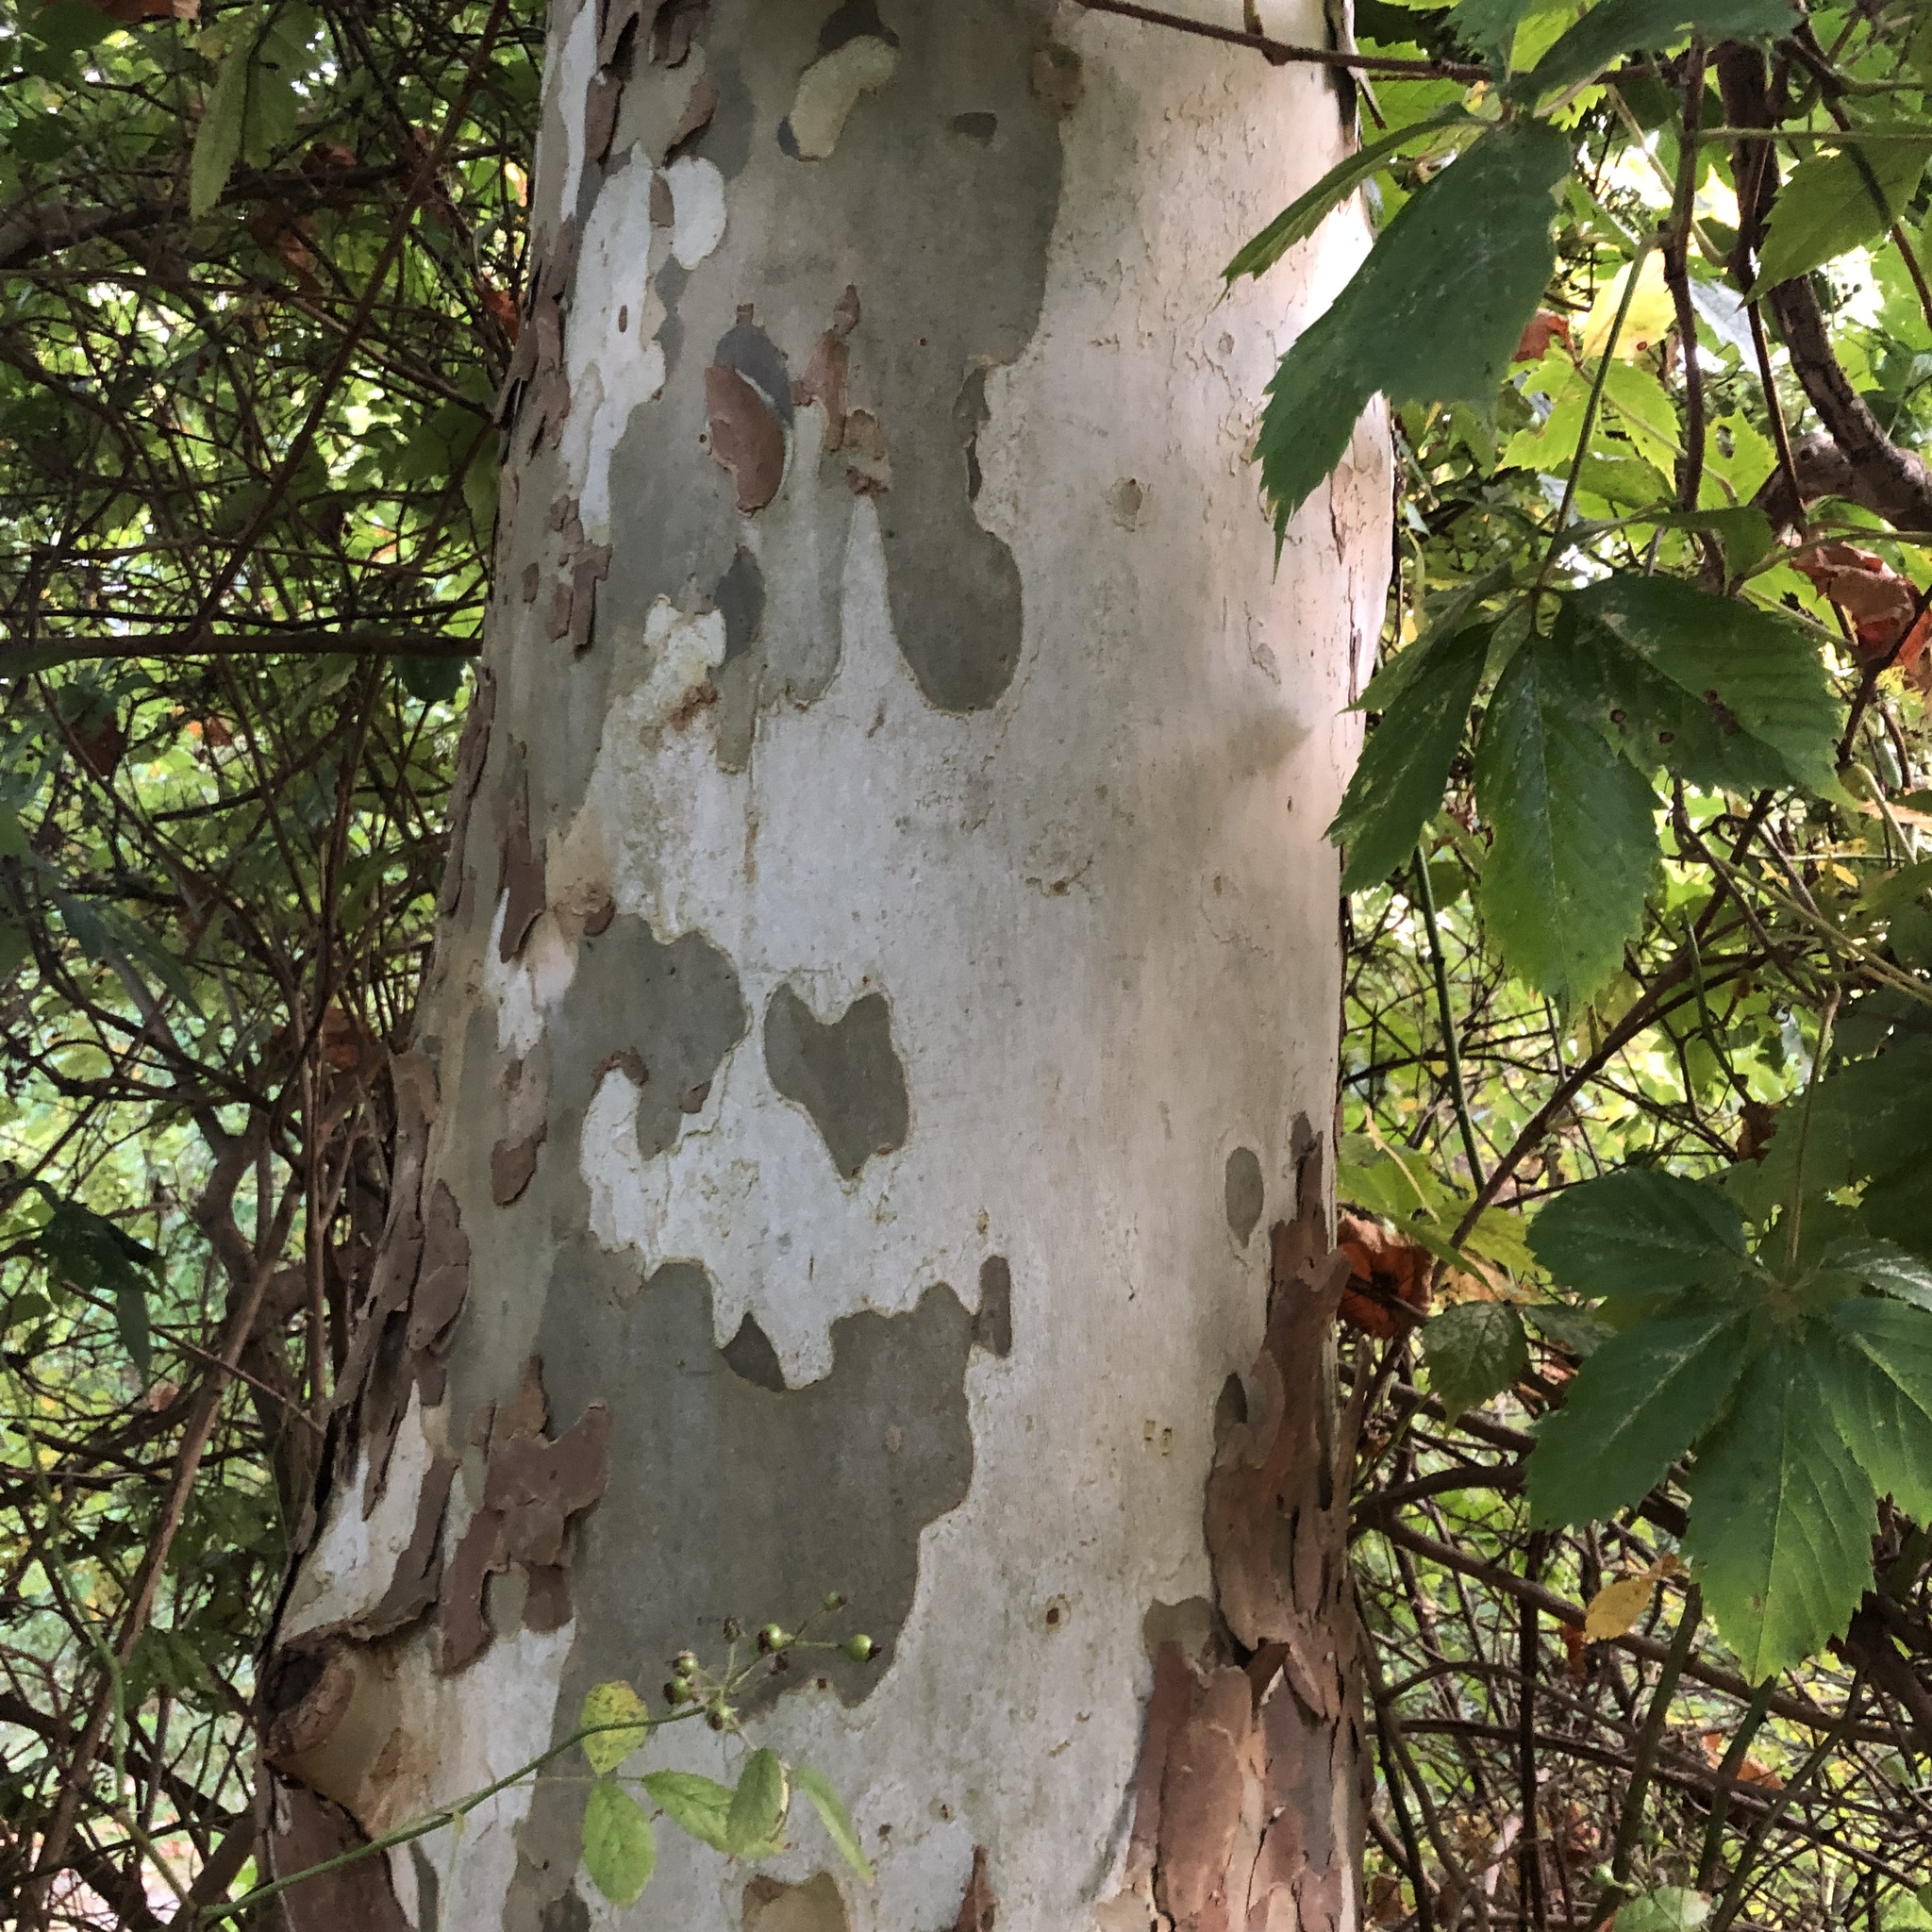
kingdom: Plantae
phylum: Tracheophyta
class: Magnoliopsida
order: Proteales
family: Platanaceae
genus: Platanus
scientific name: Platanus occidentalis
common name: American sycamore
